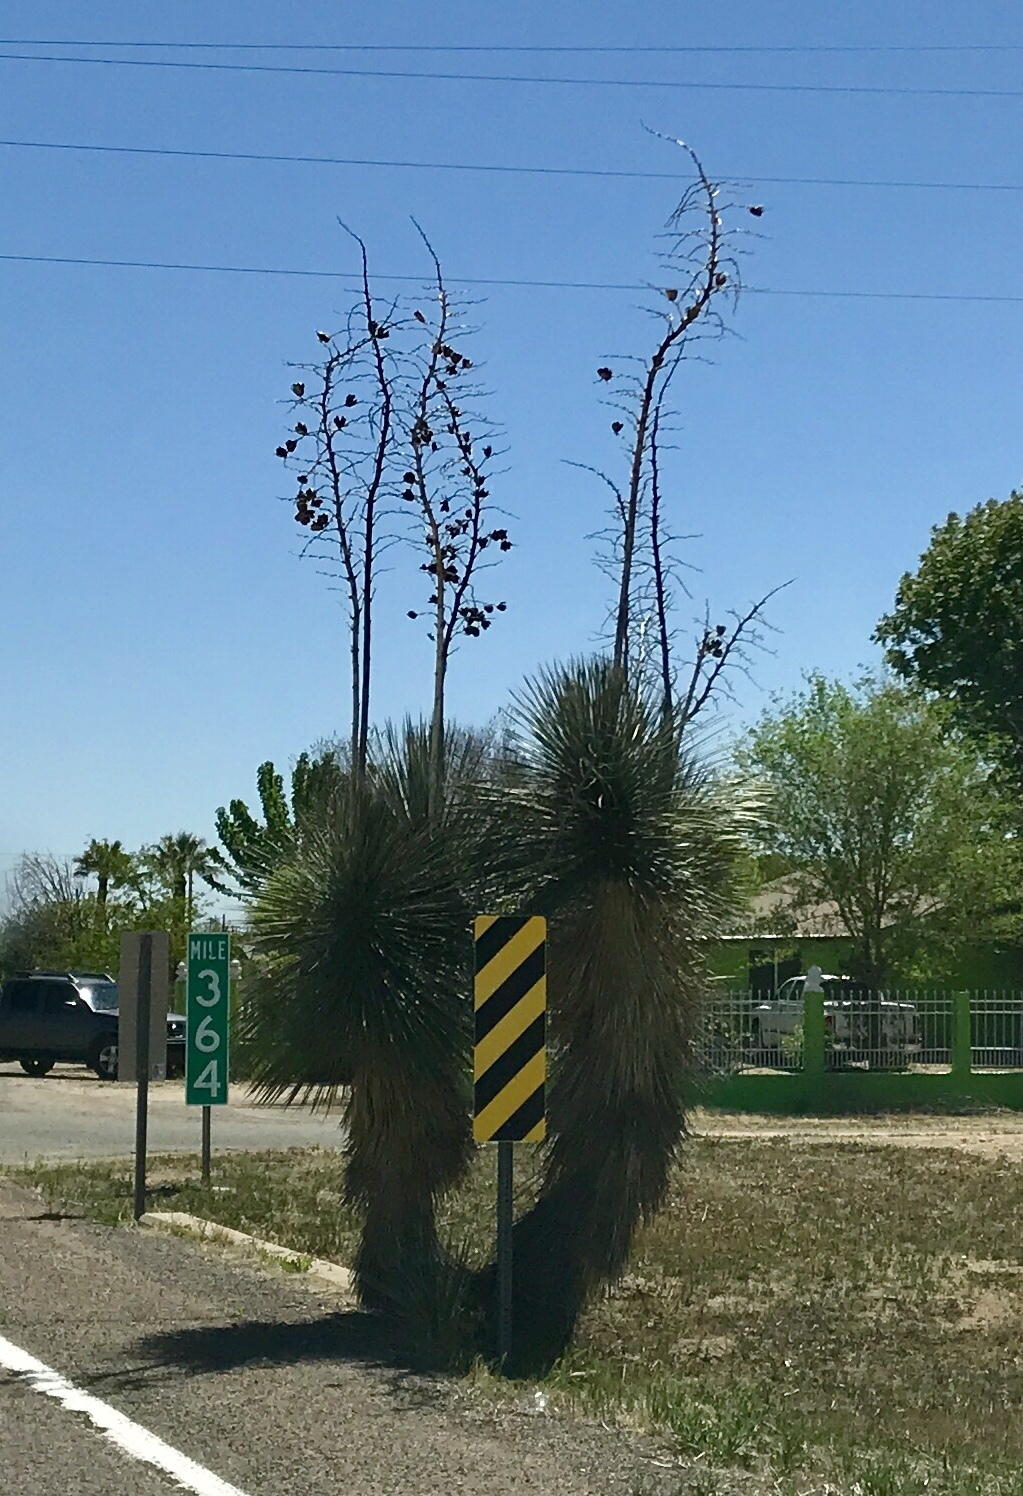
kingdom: Plantae
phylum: Tracheophyta
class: Liliopsida
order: Asparagales
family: Asparagaceae
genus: Yucca
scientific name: Yucca elata
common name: Palmella
